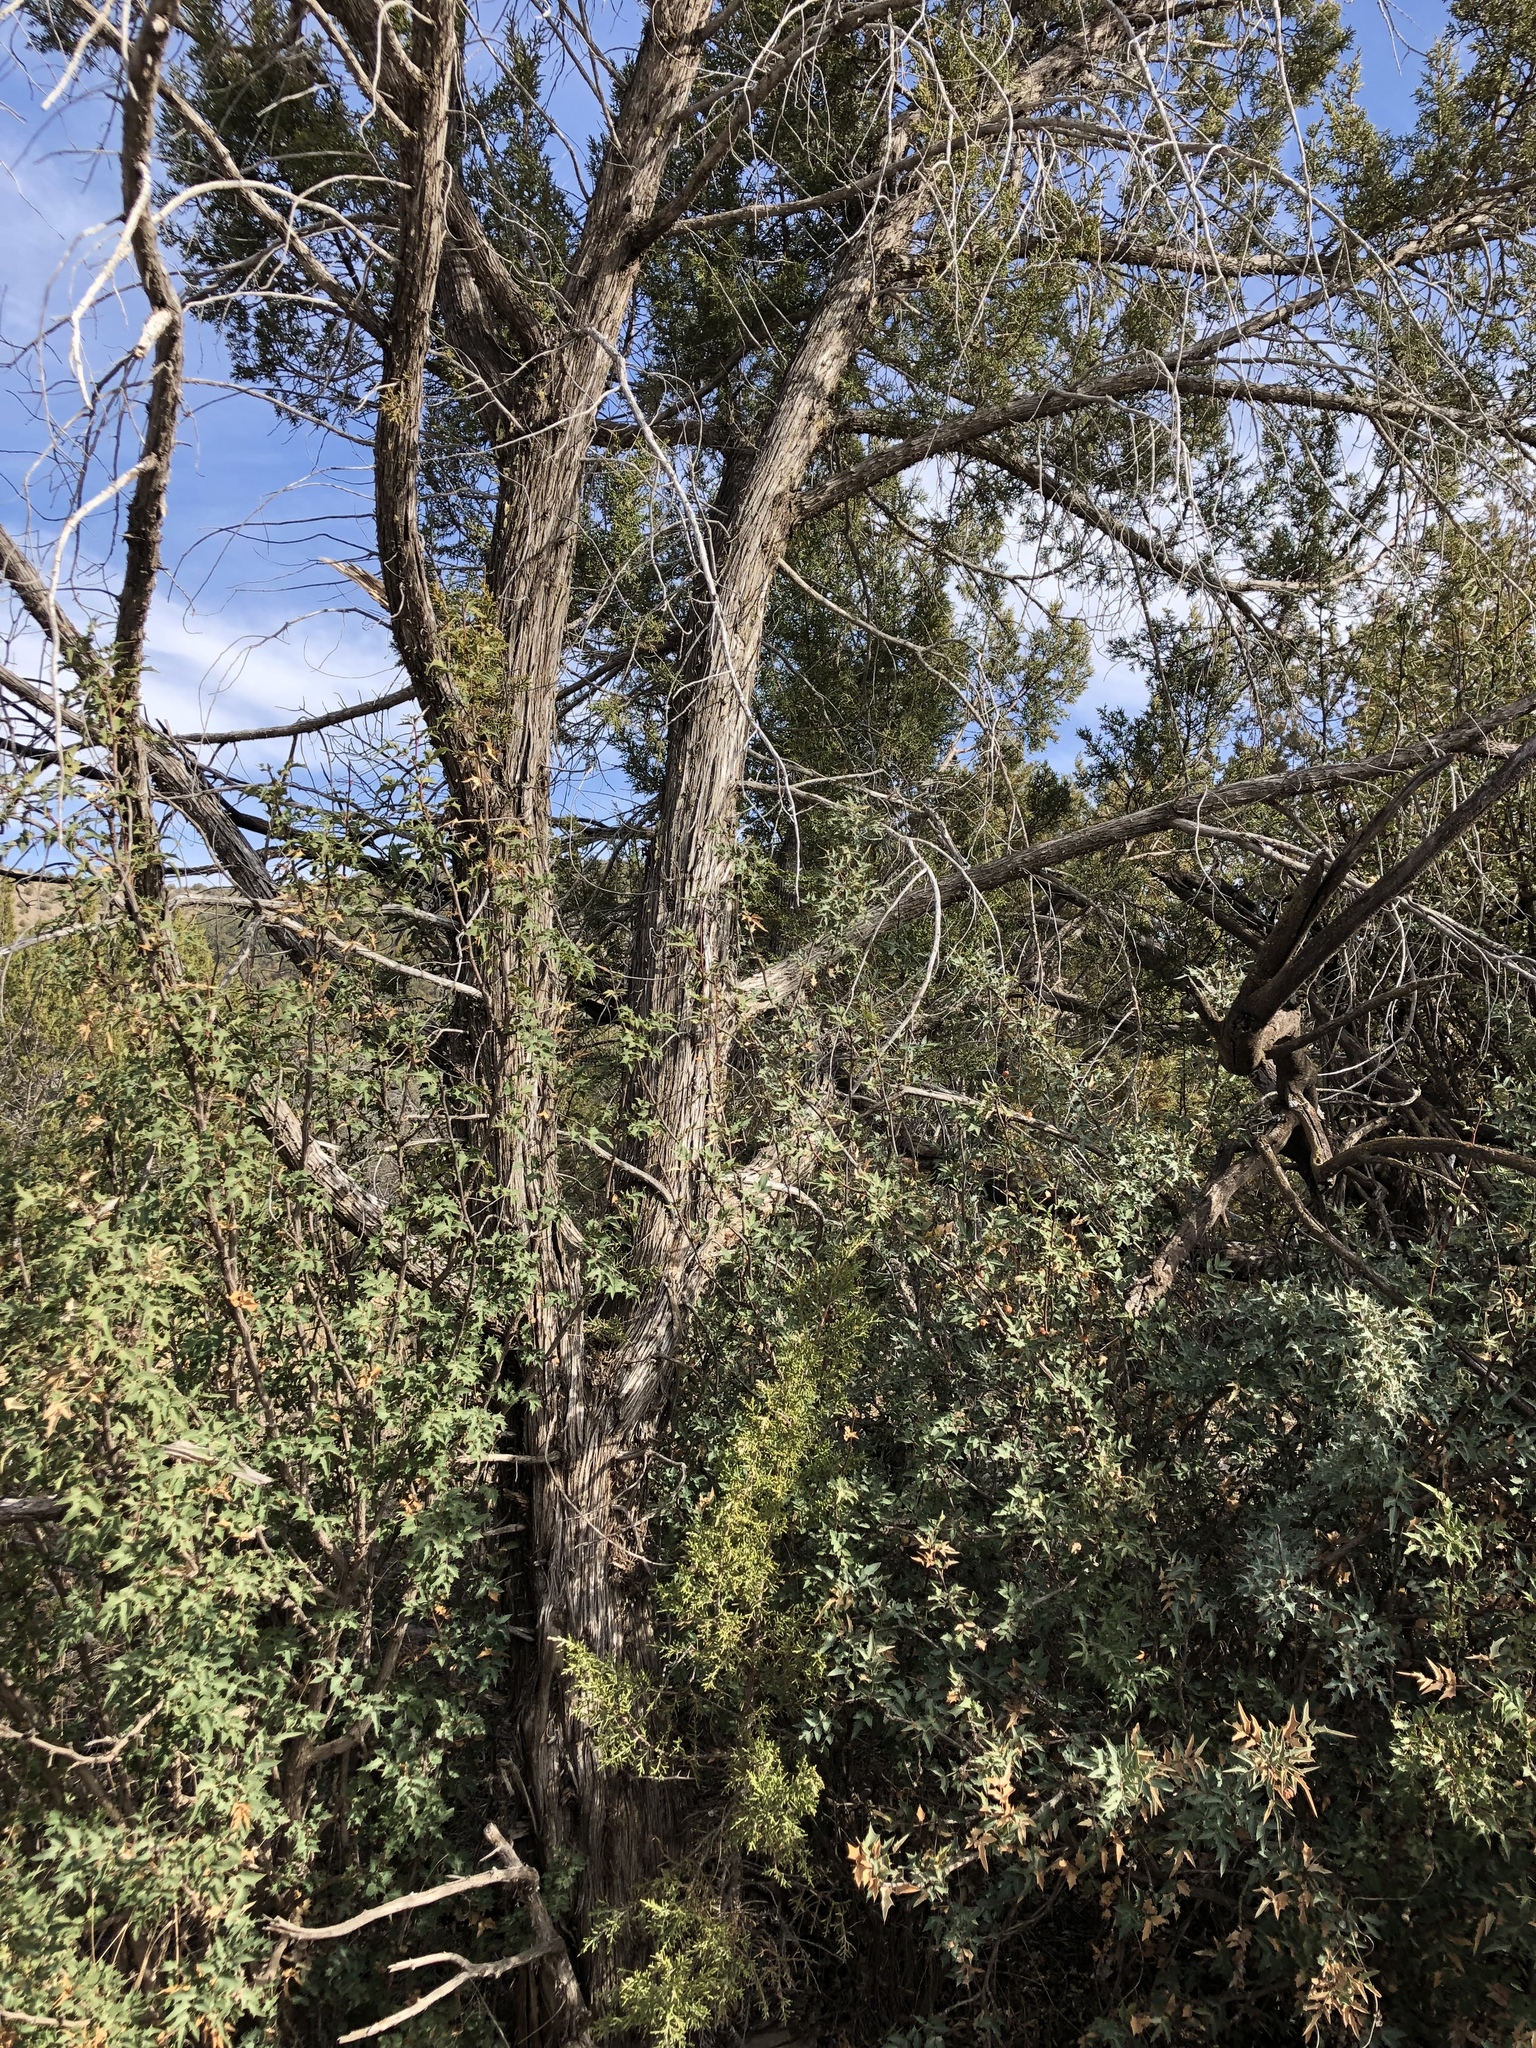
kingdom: Plantae
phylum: Tracheophyta
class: Pinopsida
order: Pinales
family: Cupressaceae
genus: Juniperus
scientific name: Juniperus monosperma
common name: One-seed juniper
